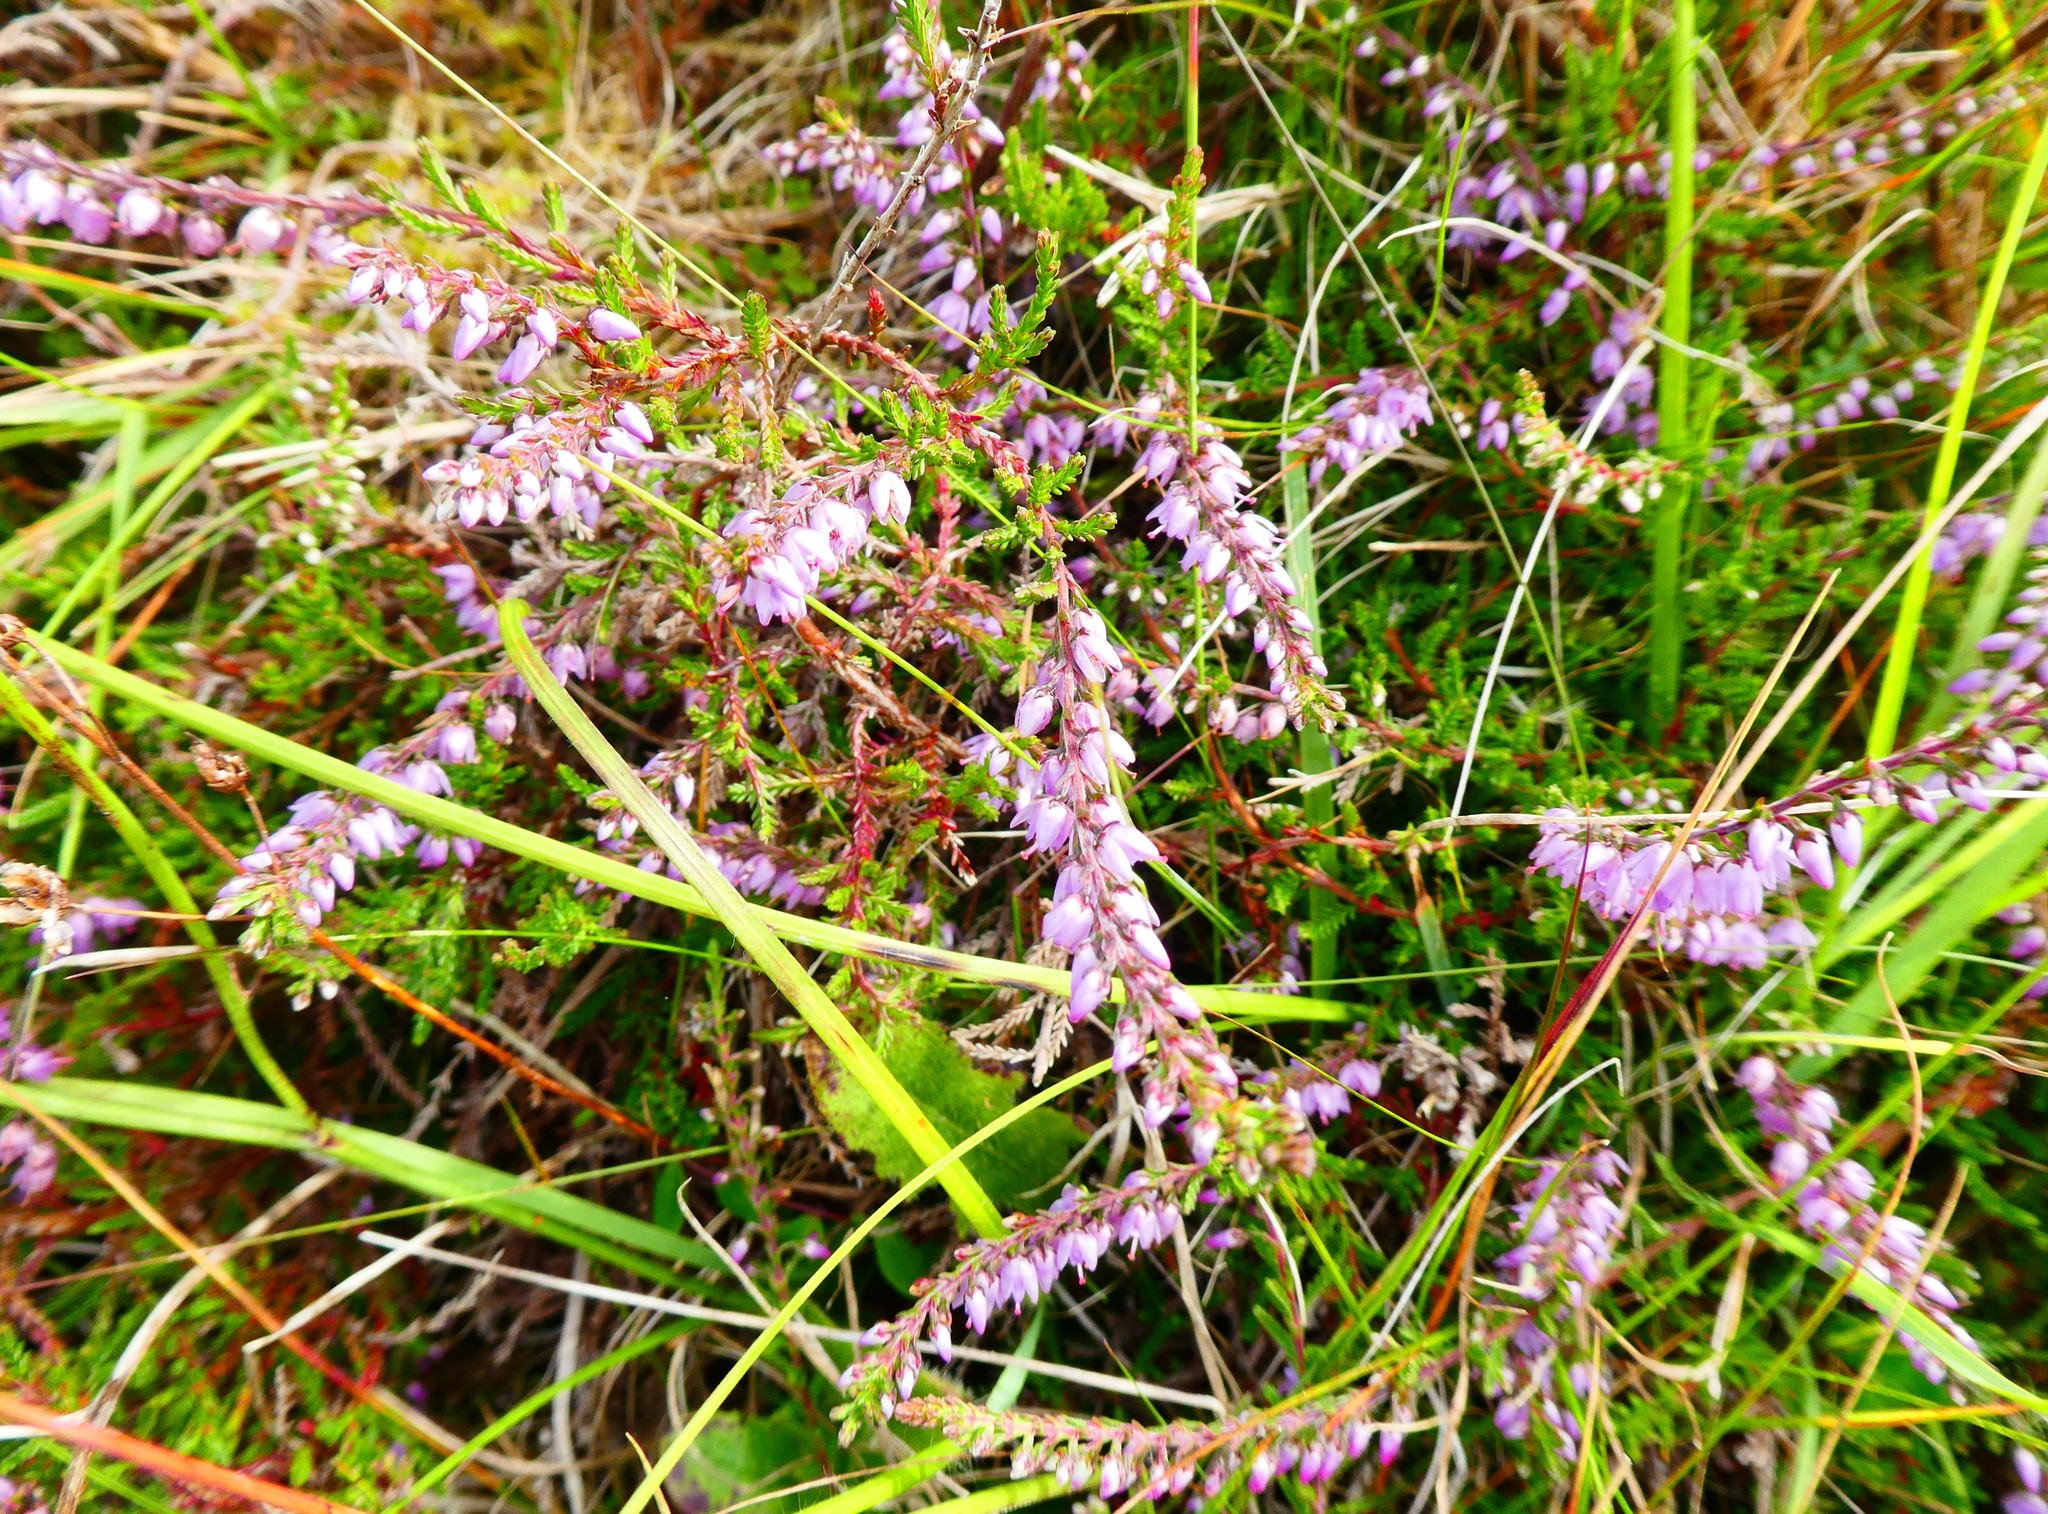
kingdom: Plantae
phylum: Tracheophyta
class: Magnoliopsida
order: Ericales
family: Ericaceae
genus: Calluna
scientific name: Calluna vulgaris
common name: Heather
